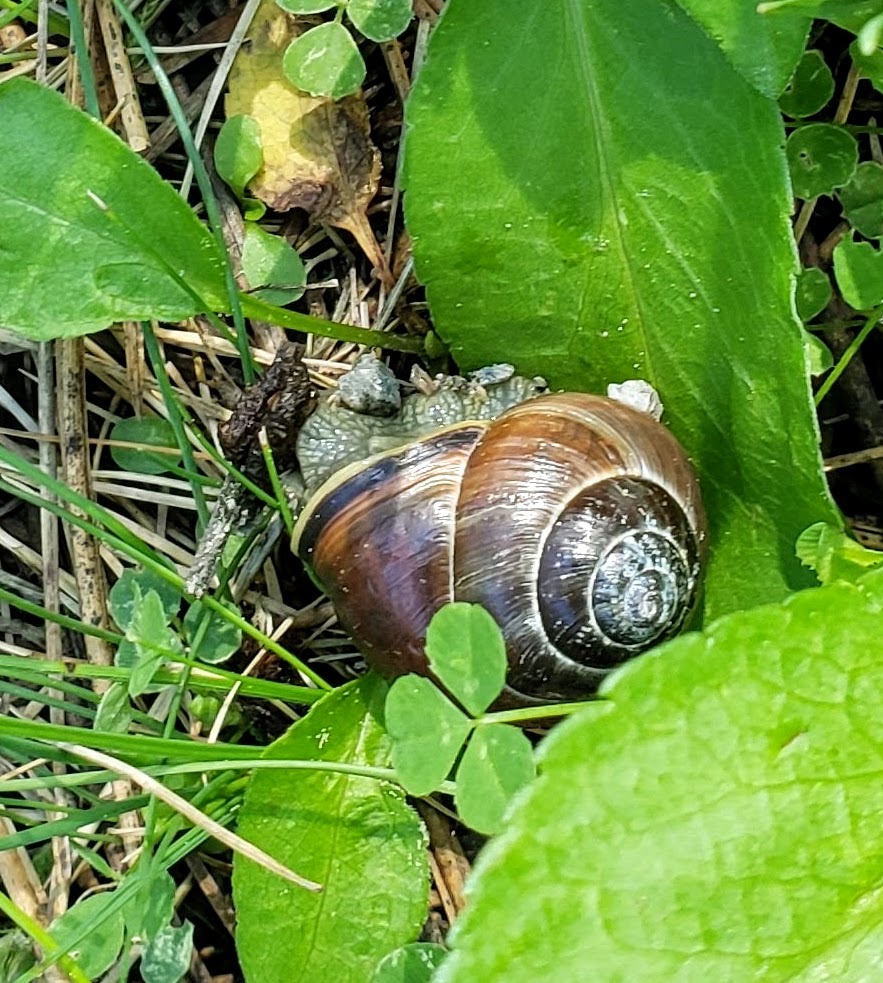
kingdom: Animalia
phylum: Mollusca
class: Gastropoda
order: Stylommatophora
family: Helicidae
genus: Cepaea
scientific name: Cepaea nemoralis
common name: Grovesnail
